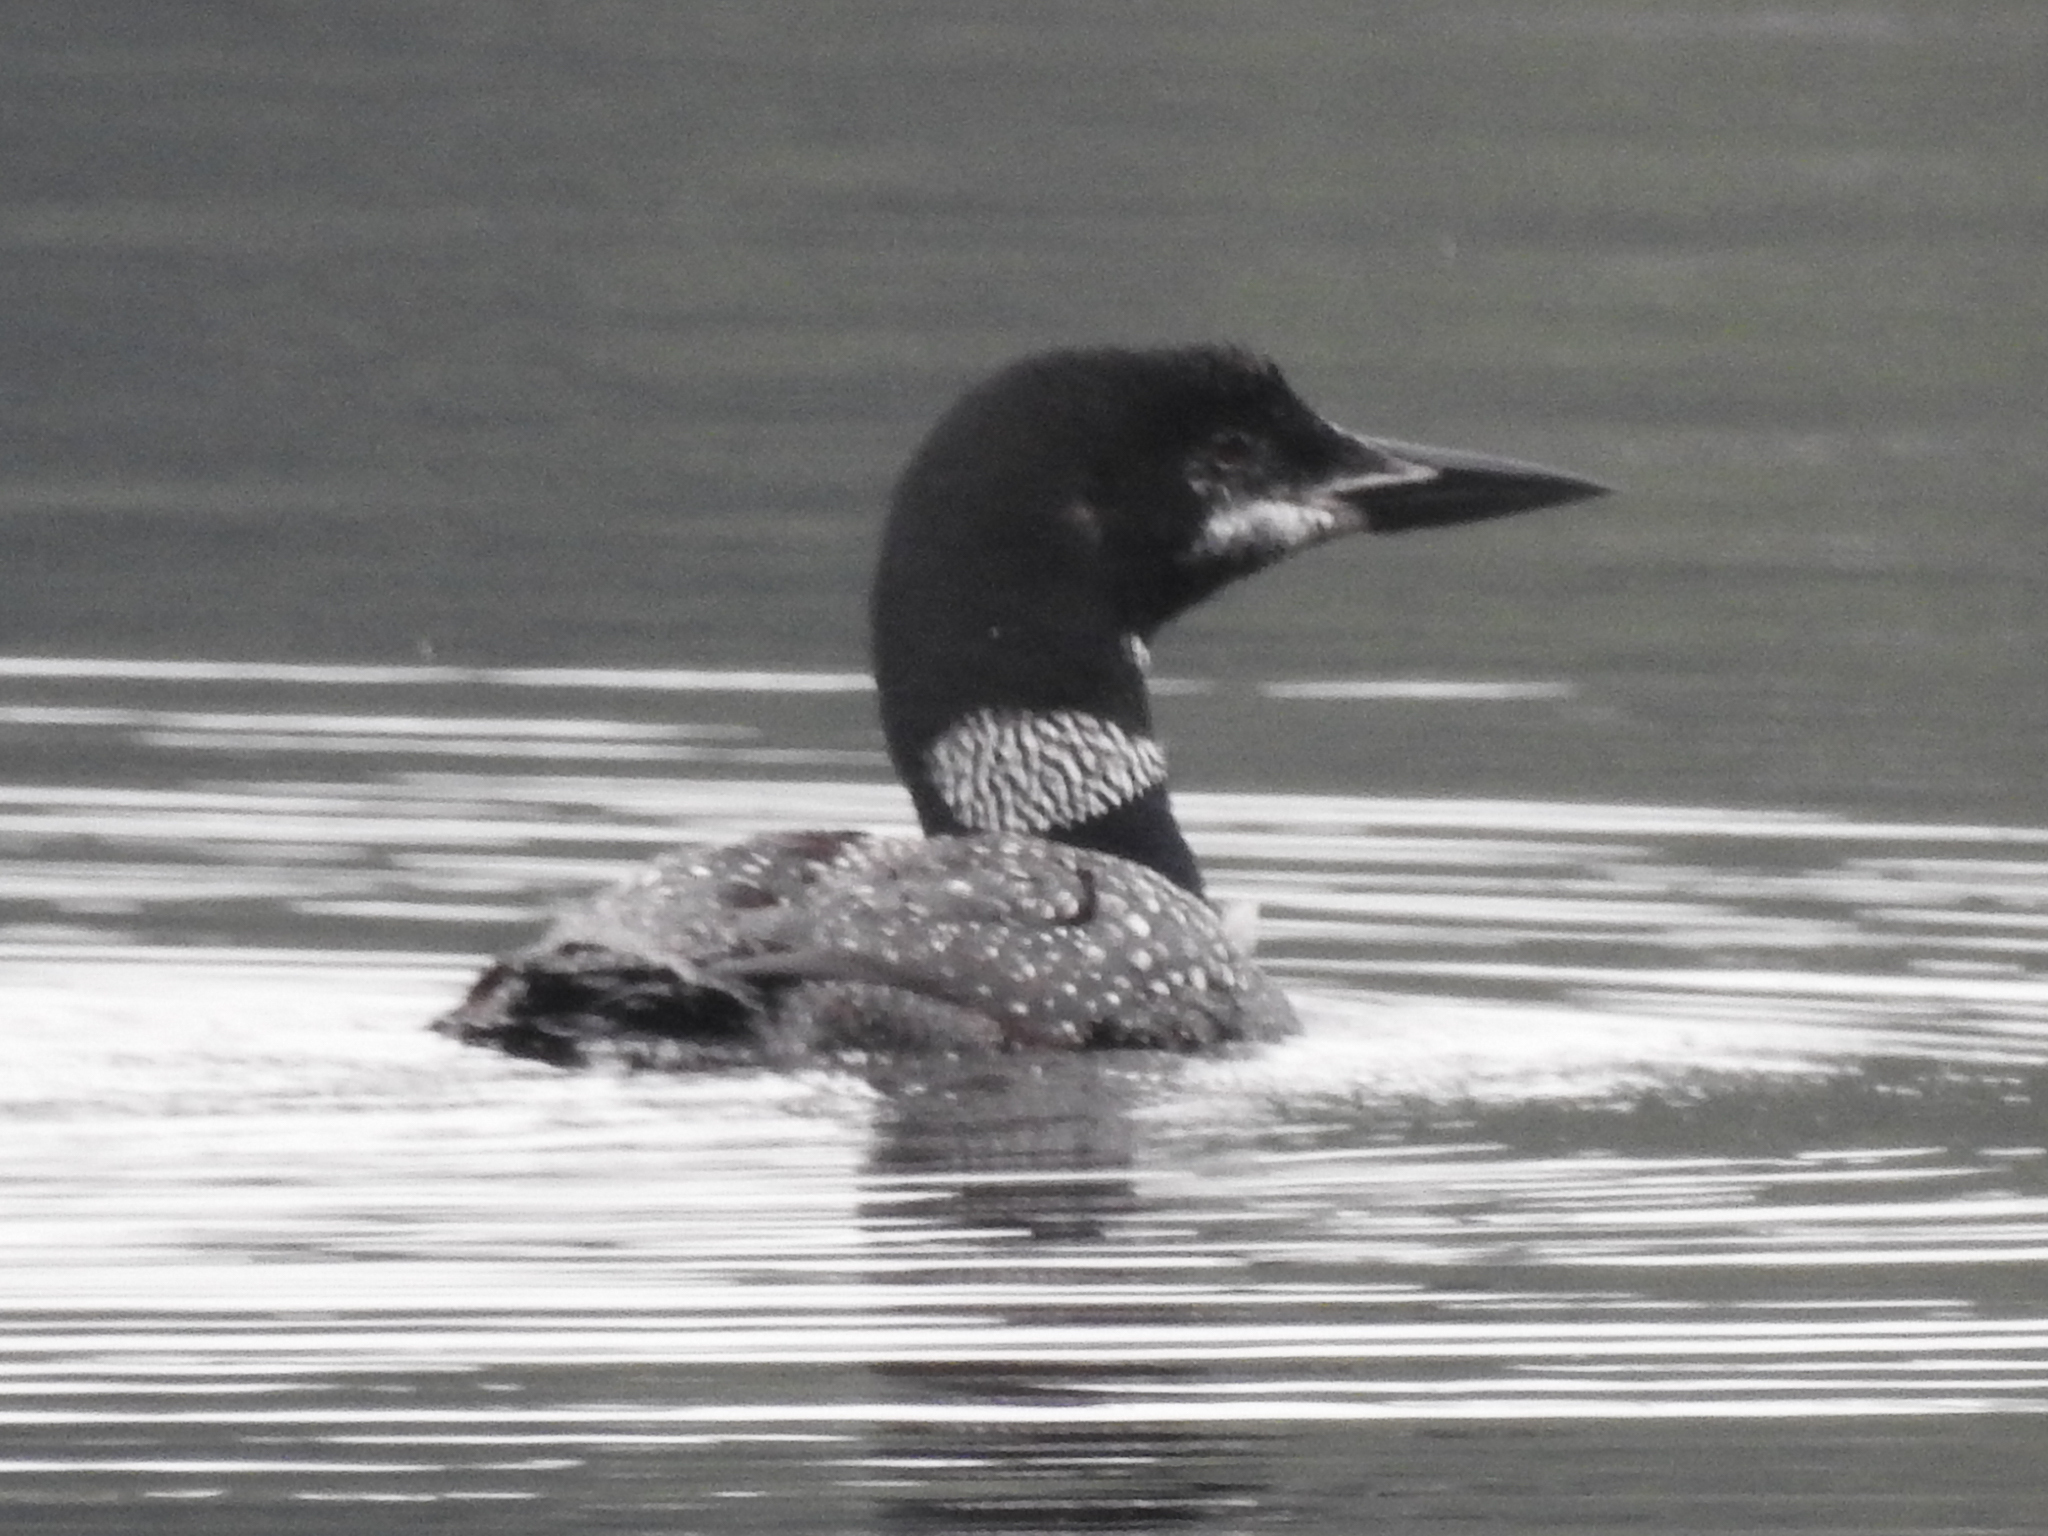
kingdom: Animalia
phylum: Chordata
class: Aves
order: Gaviiformes
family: Gaviidae
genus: Gavia
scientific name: Gavia immer
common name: Common loon
